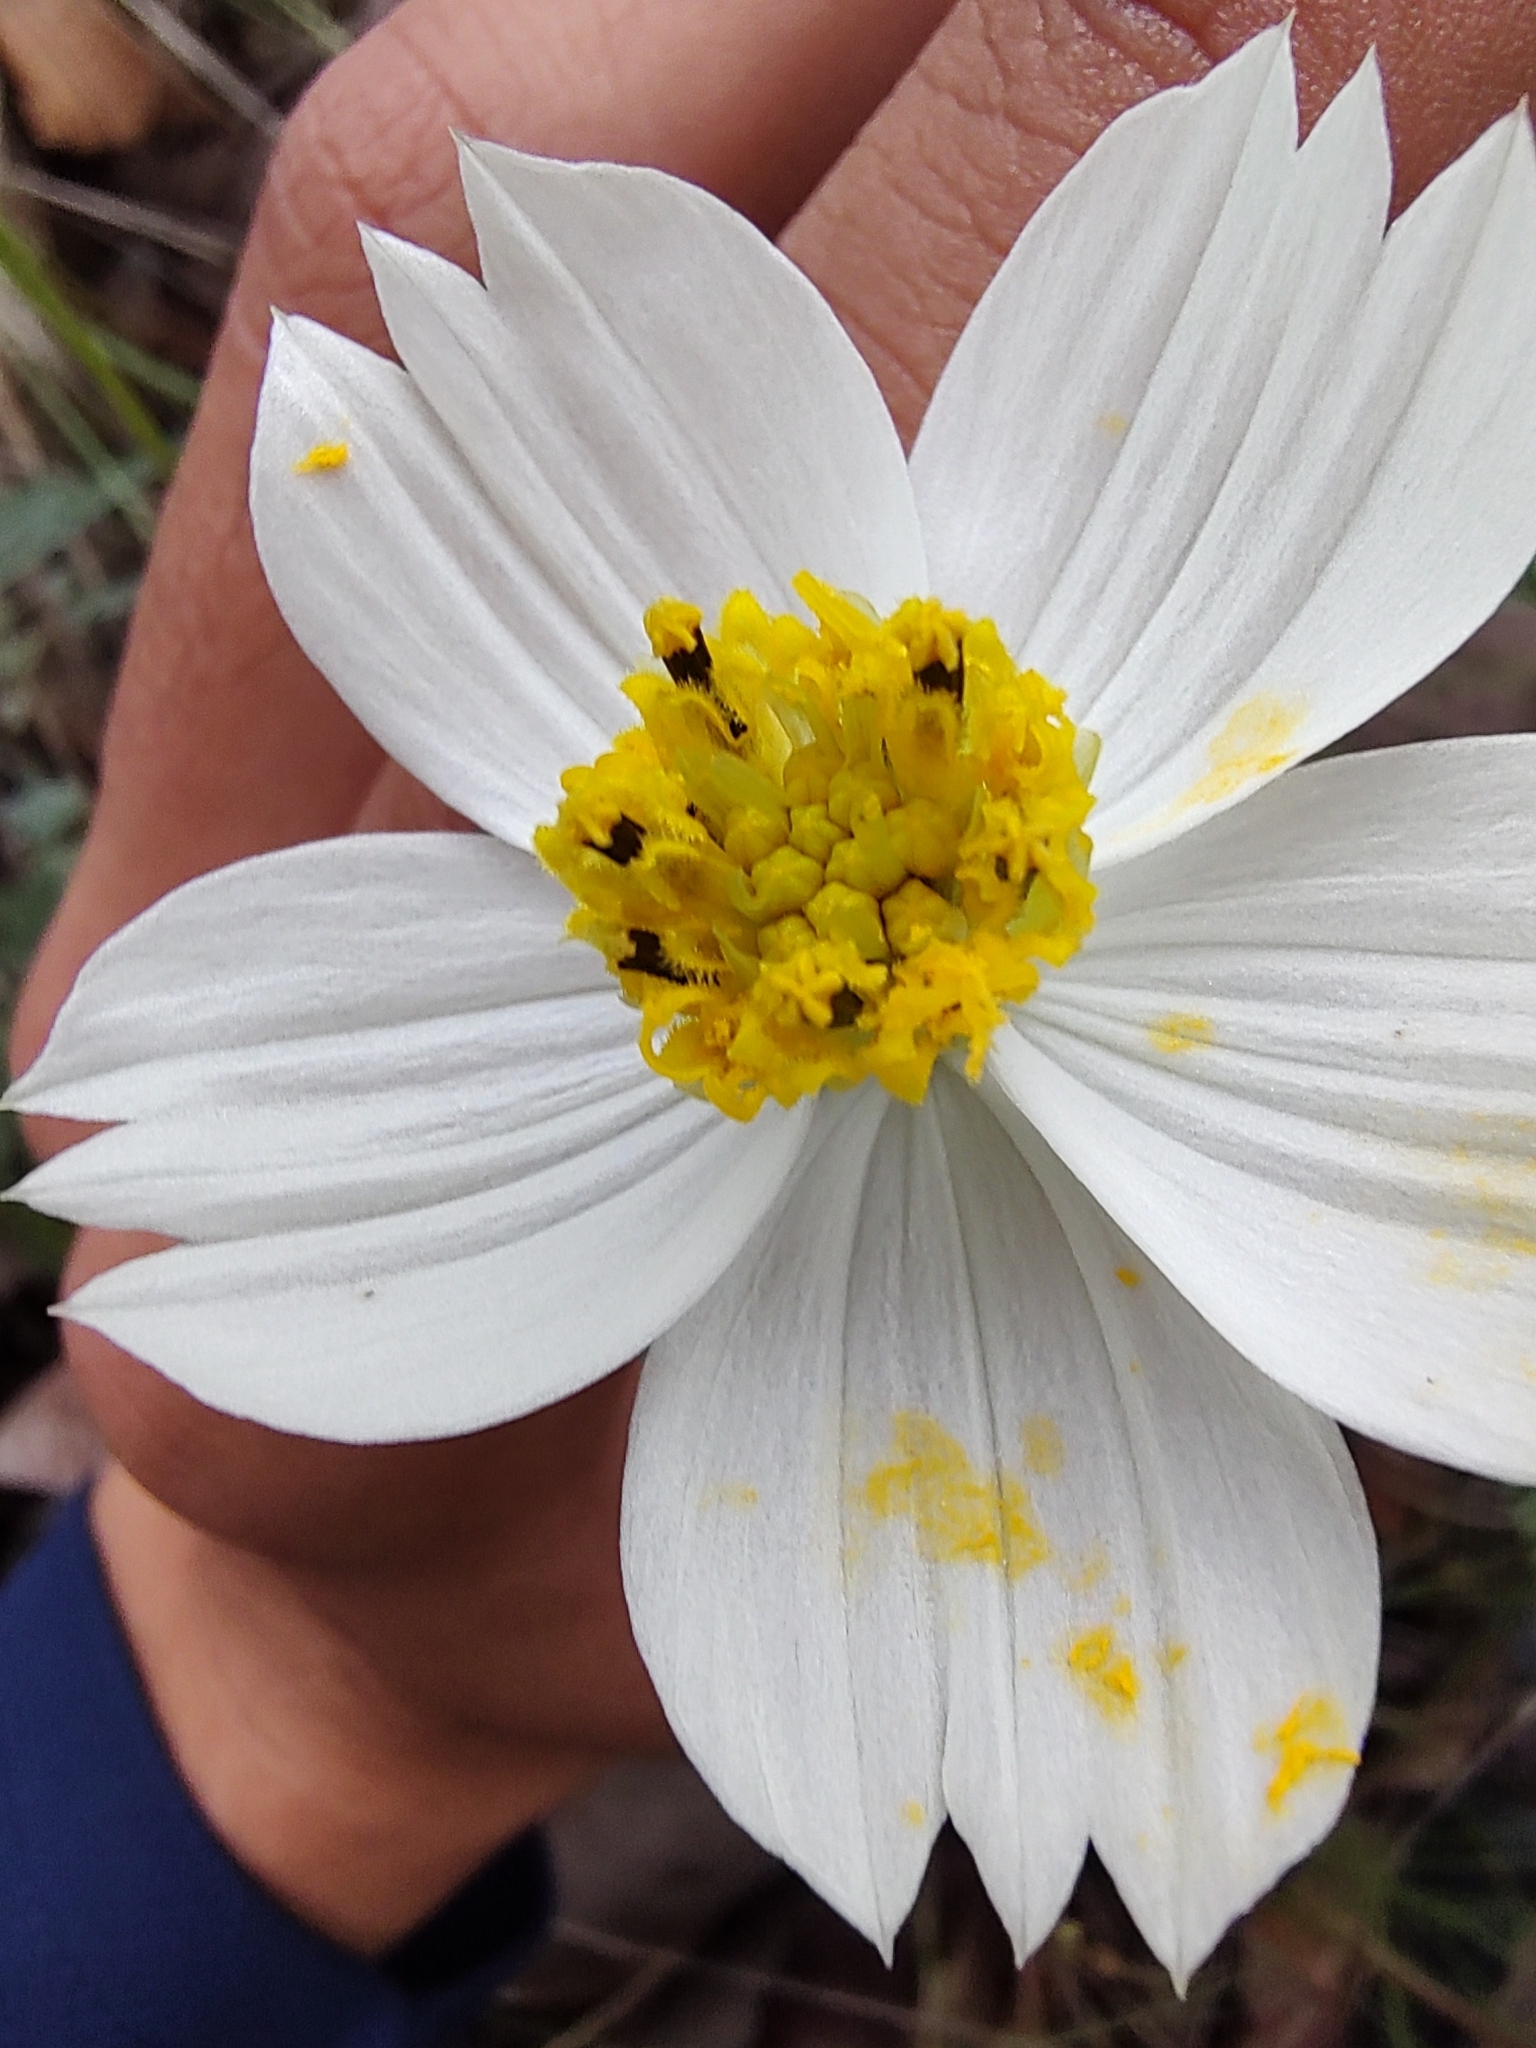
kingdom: Plantae
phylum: Tracheophyta
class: Magnoliopsida
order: Asterales
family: Asteraceae
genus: Cosmos
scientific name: Cosmos landii
